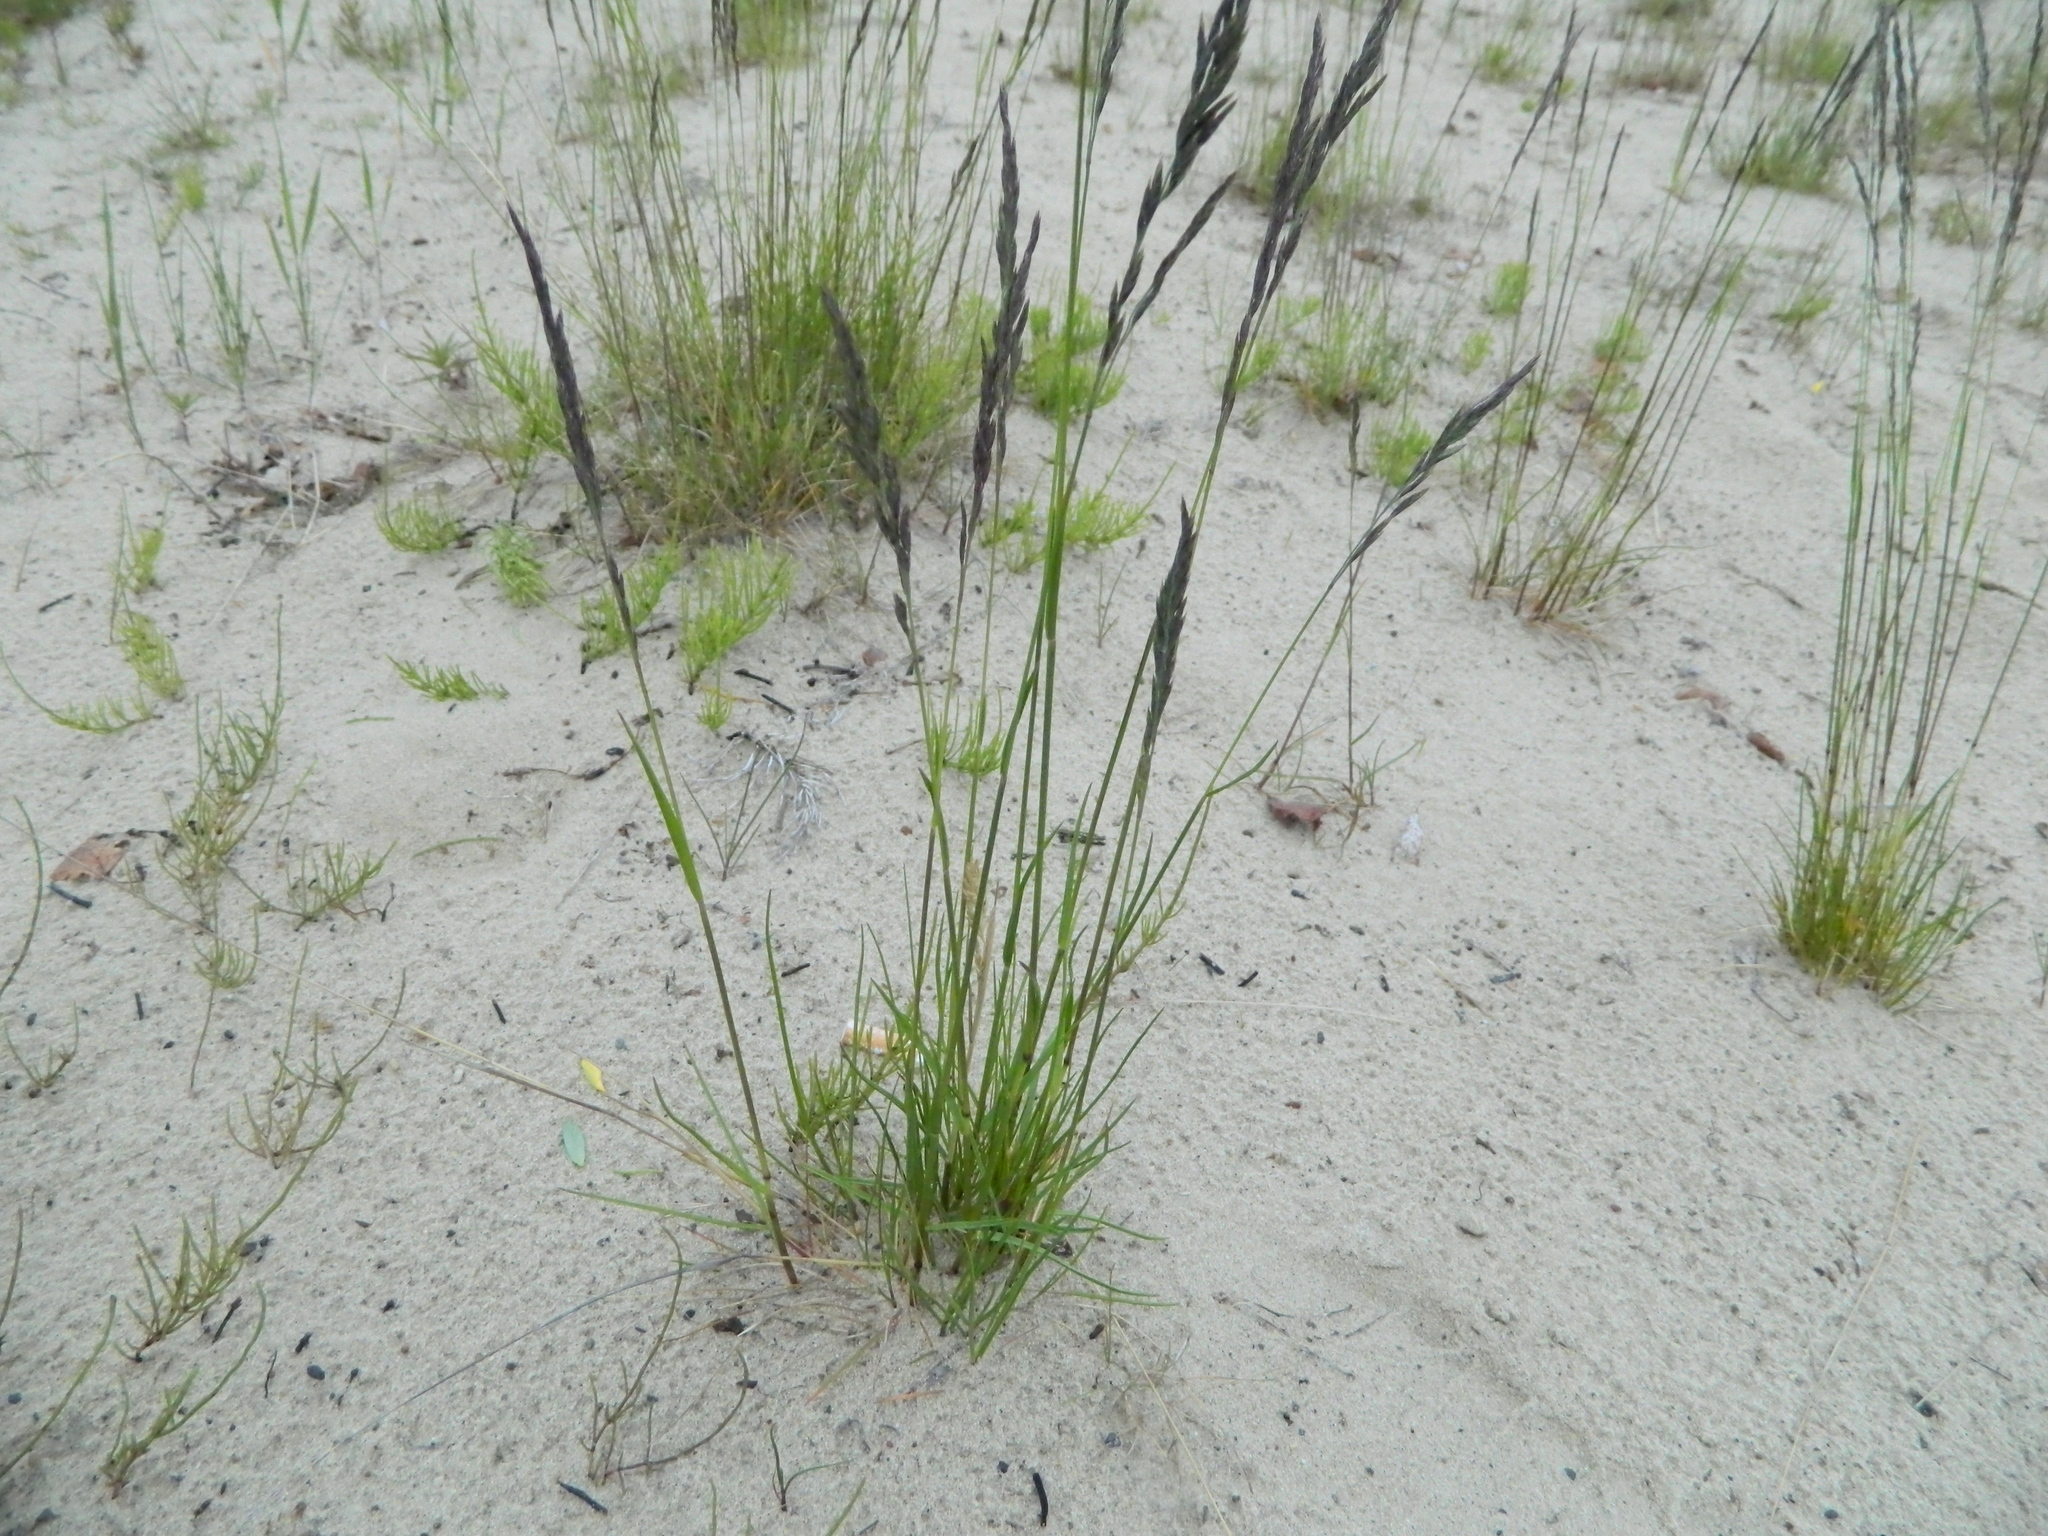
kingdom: Plantae
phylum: Tracheophyta
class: Liliopsida
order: Poales
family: Poaceae
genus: Festuca
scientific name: Festuca rubra
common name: Red fescue
